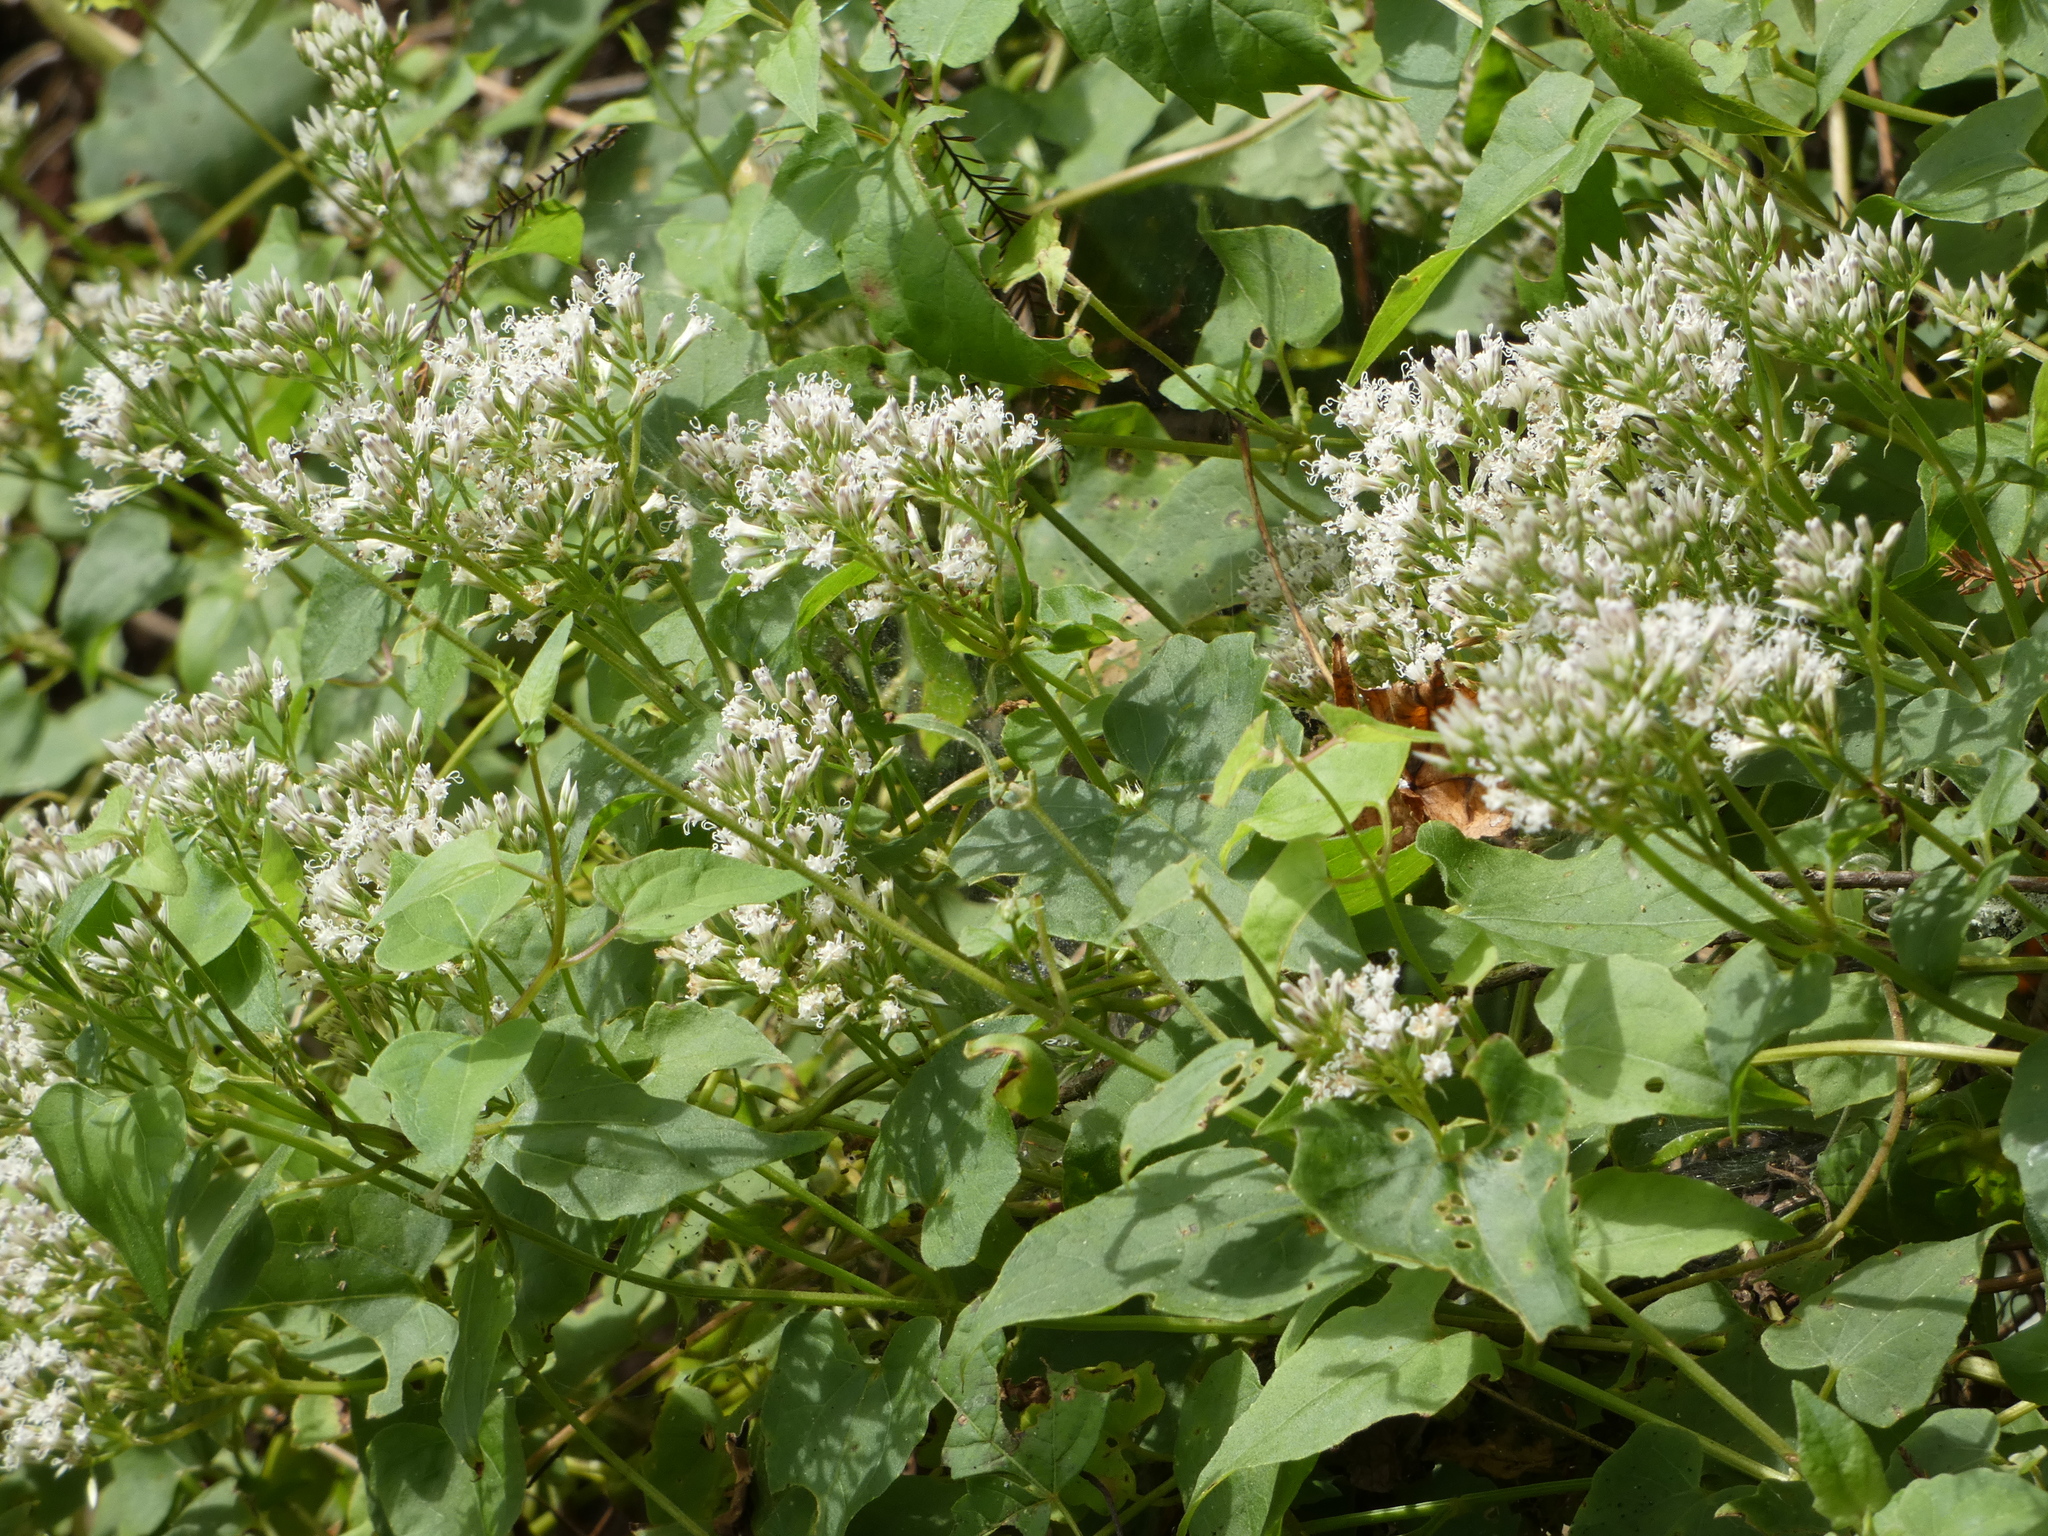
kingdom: Plantae
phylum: Tracheophyta
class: Magnoliopsida
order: Asterales
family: Asteraceae
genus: Mikania
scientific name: Mikania scandens
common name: Climbing hempvine
